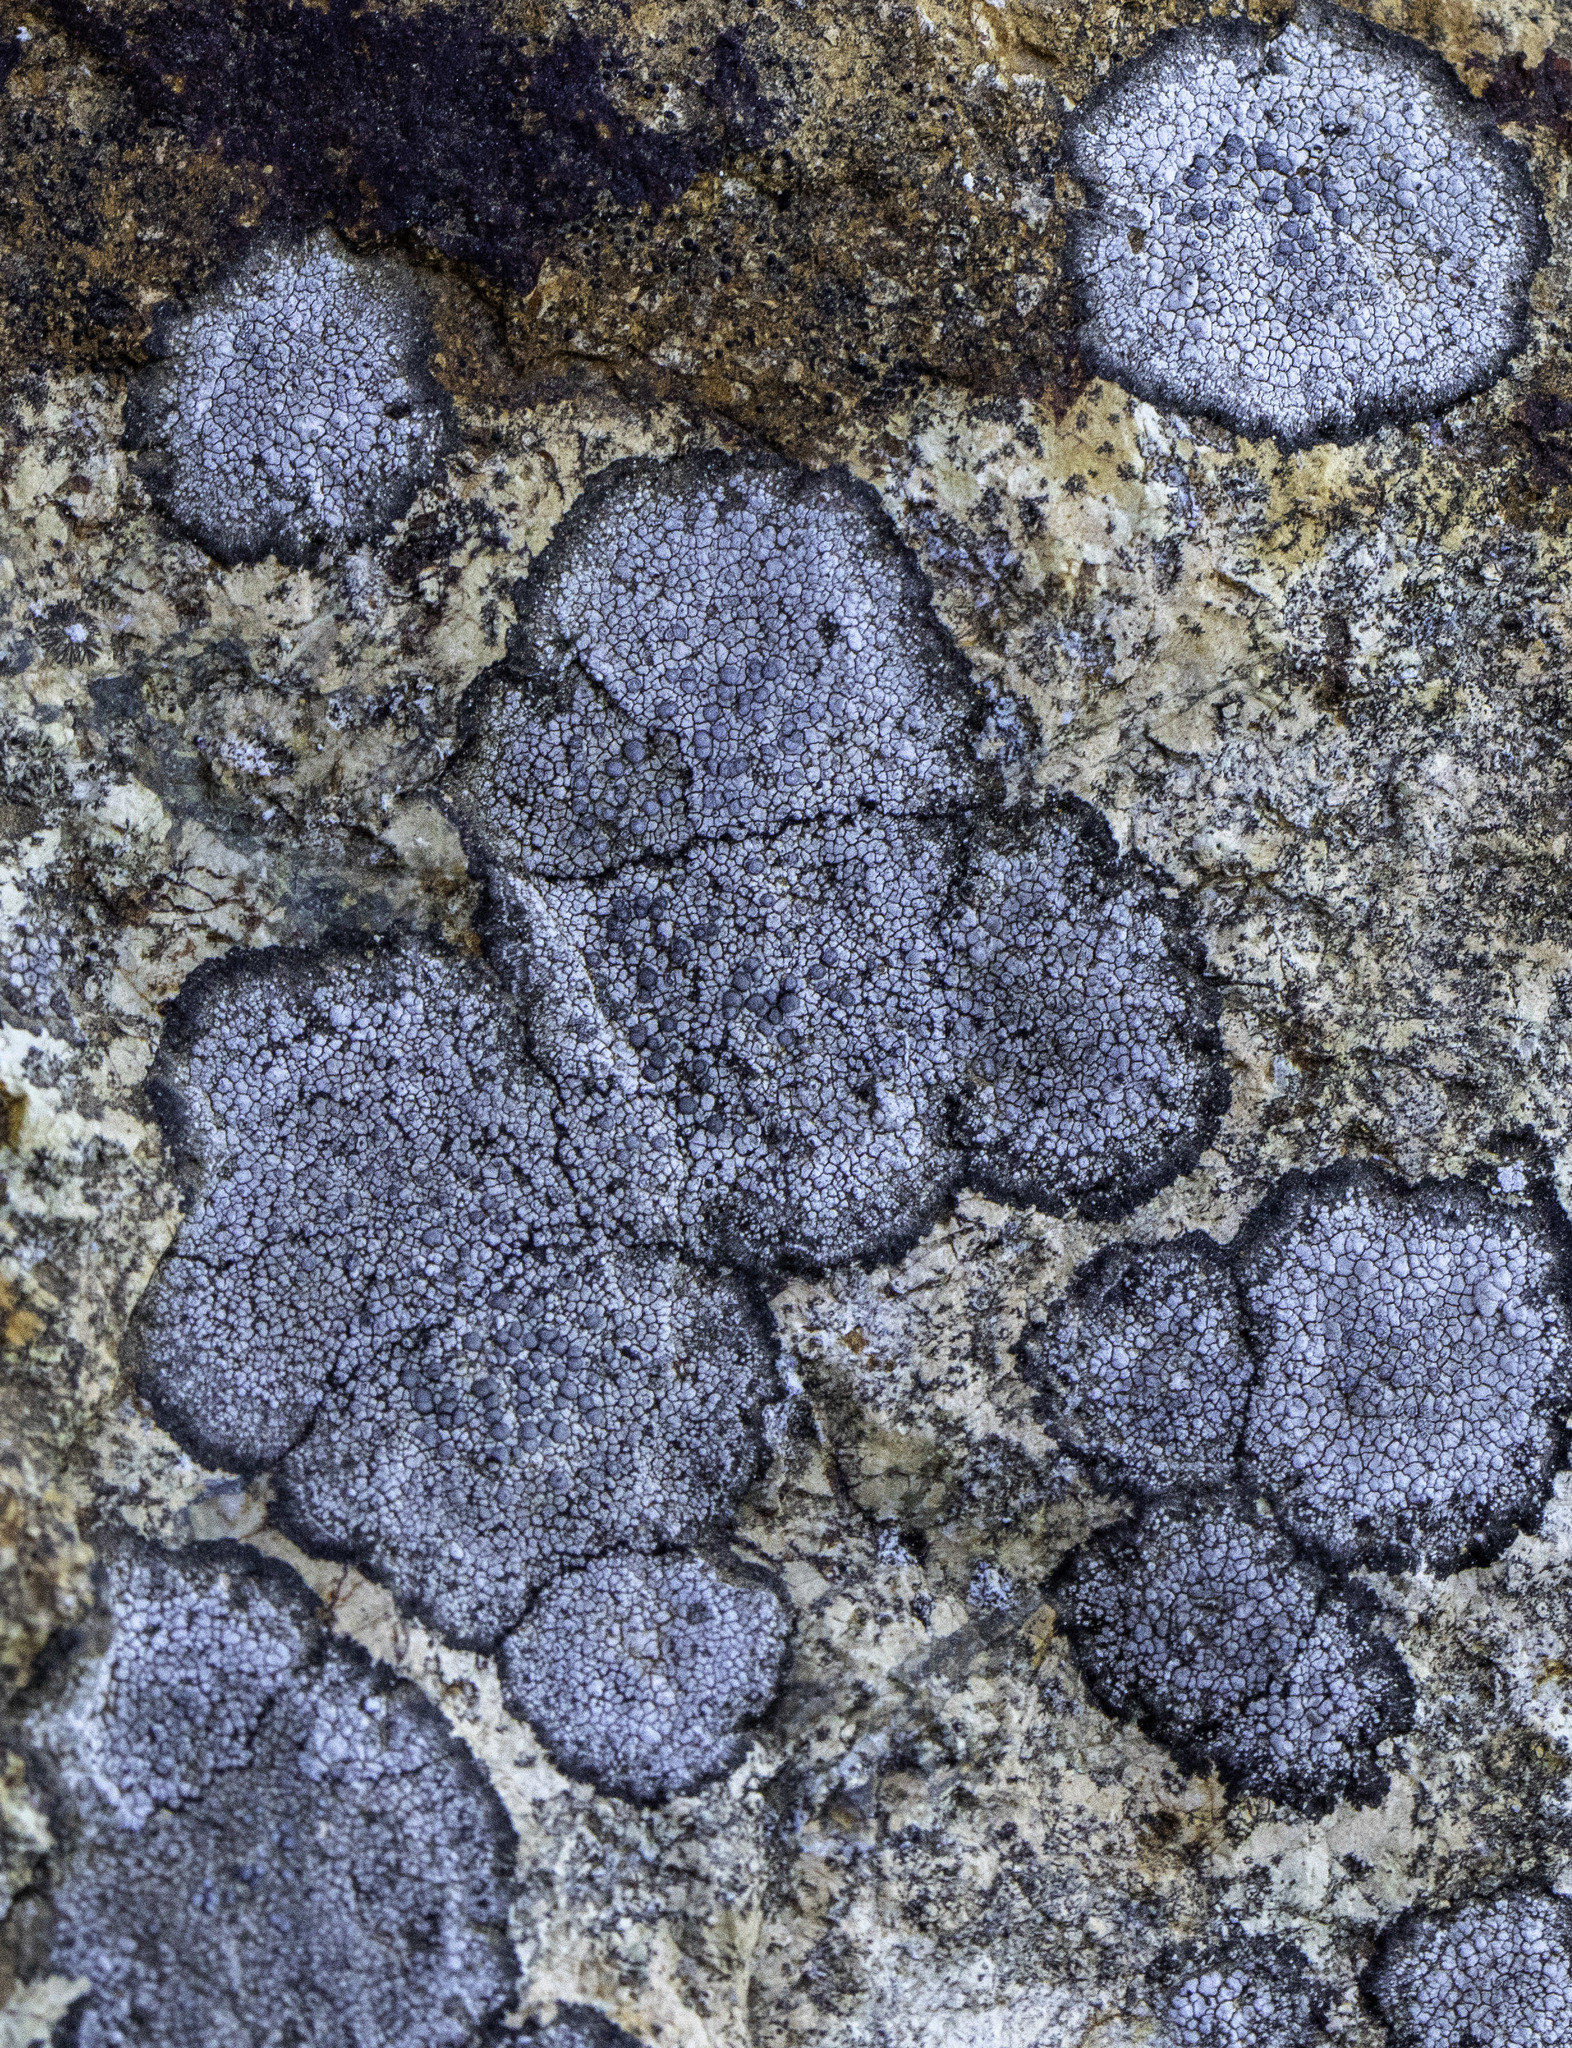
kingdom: Fungi
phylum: Ascomycota
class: Lecanoromycetes
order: Lecanorales
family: Lecanoraceae
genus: Glaucomaria
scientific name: Glaucomaria rupicola
